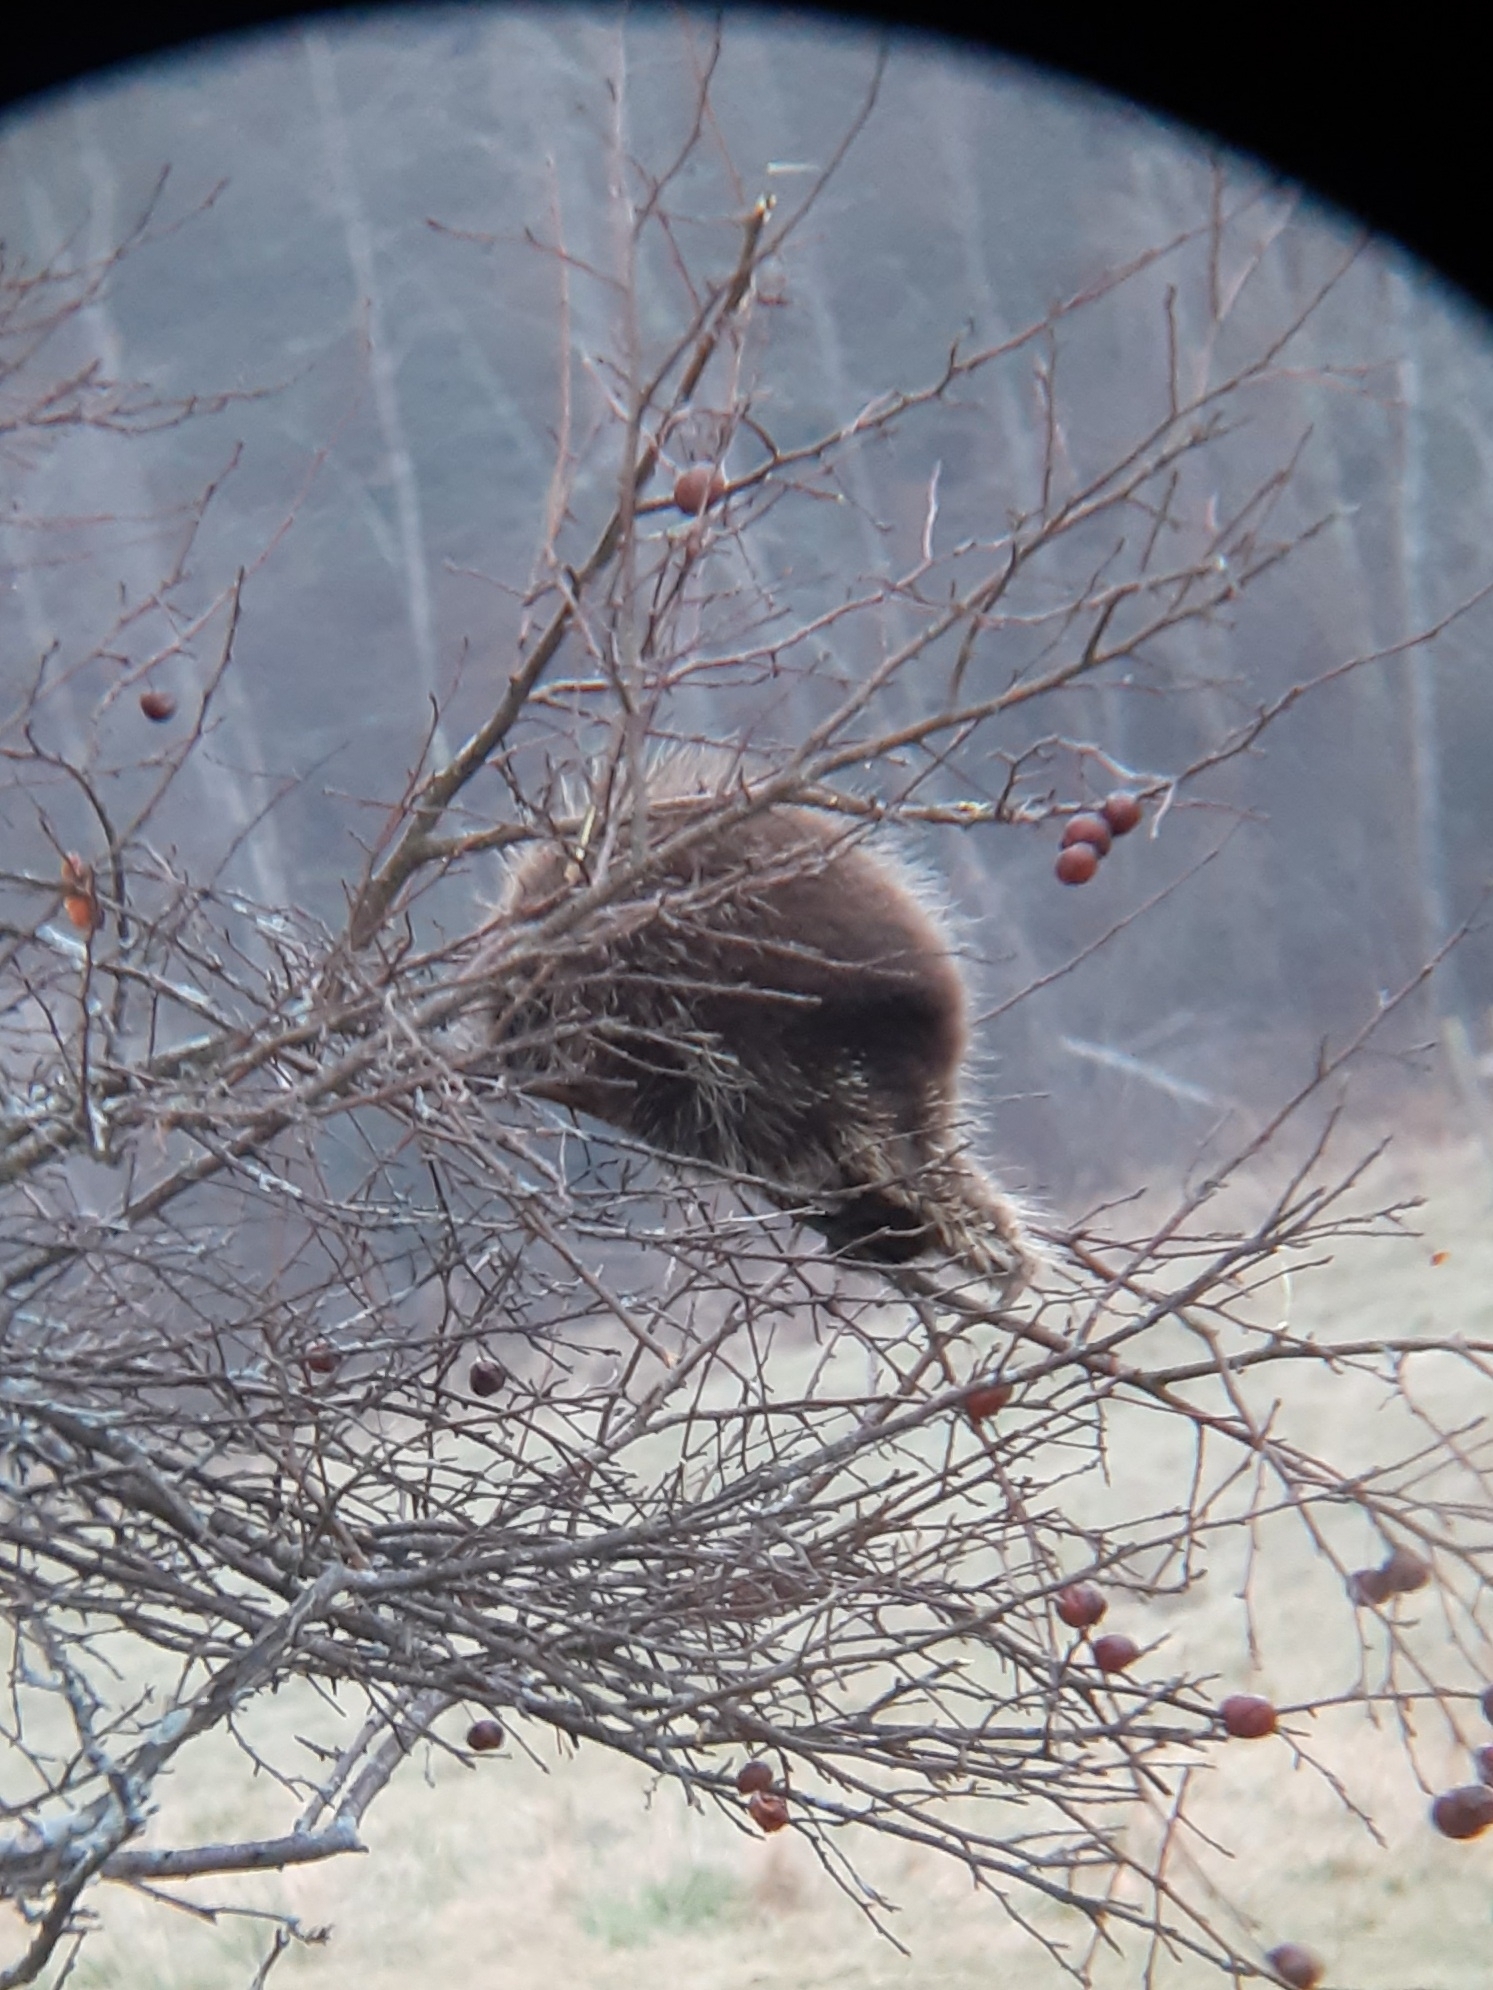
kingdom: Animalia
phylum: Chordata
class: Mammalia
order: Rodentia
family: Erethizontidae
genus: Erethizon
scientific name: Erethizon dorsatus
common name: North american porcupine
